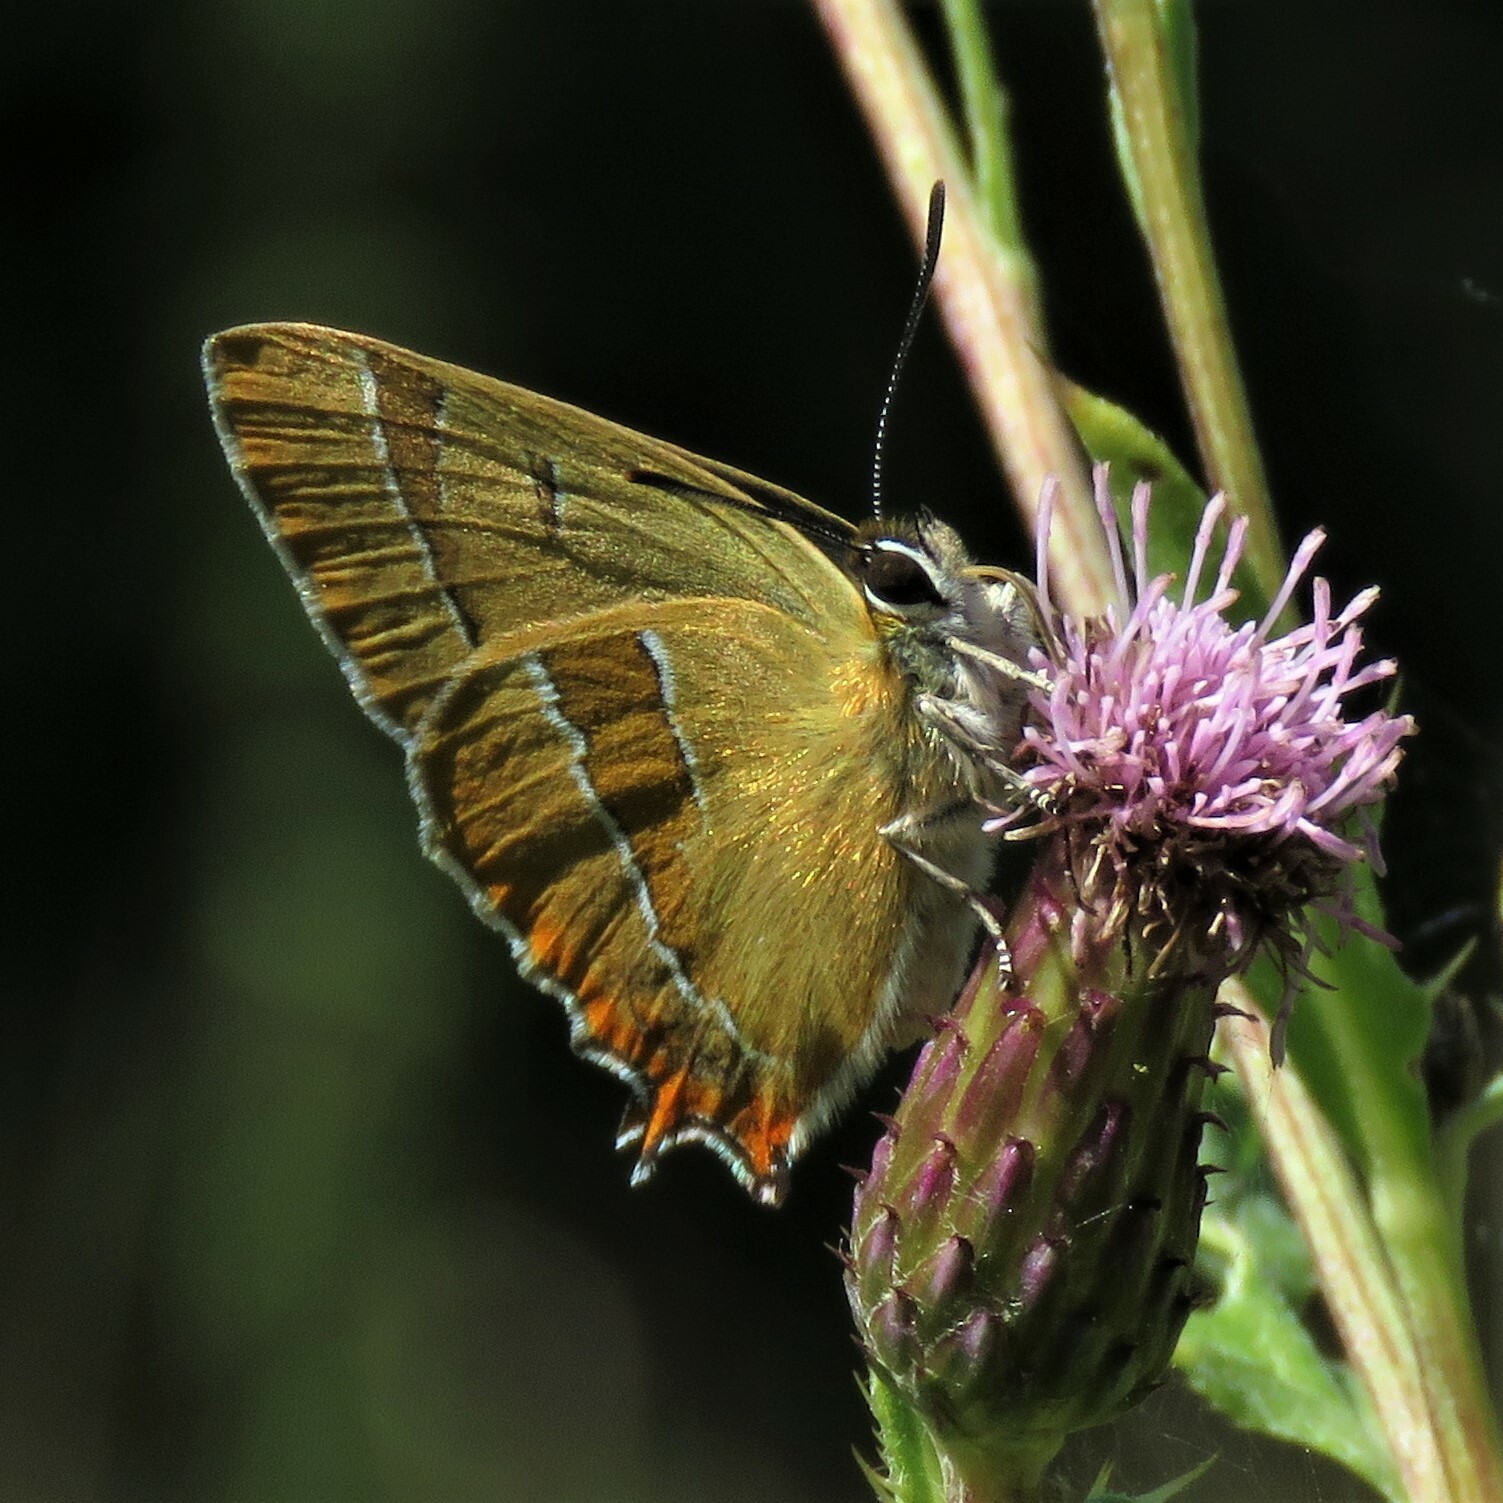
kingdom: Animalia
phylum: Arthropoda
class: Insecta
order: Lepidoptera
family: Lycaenidae
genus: Thecla
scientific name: Thecla betulae
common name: Brown hairstreak
